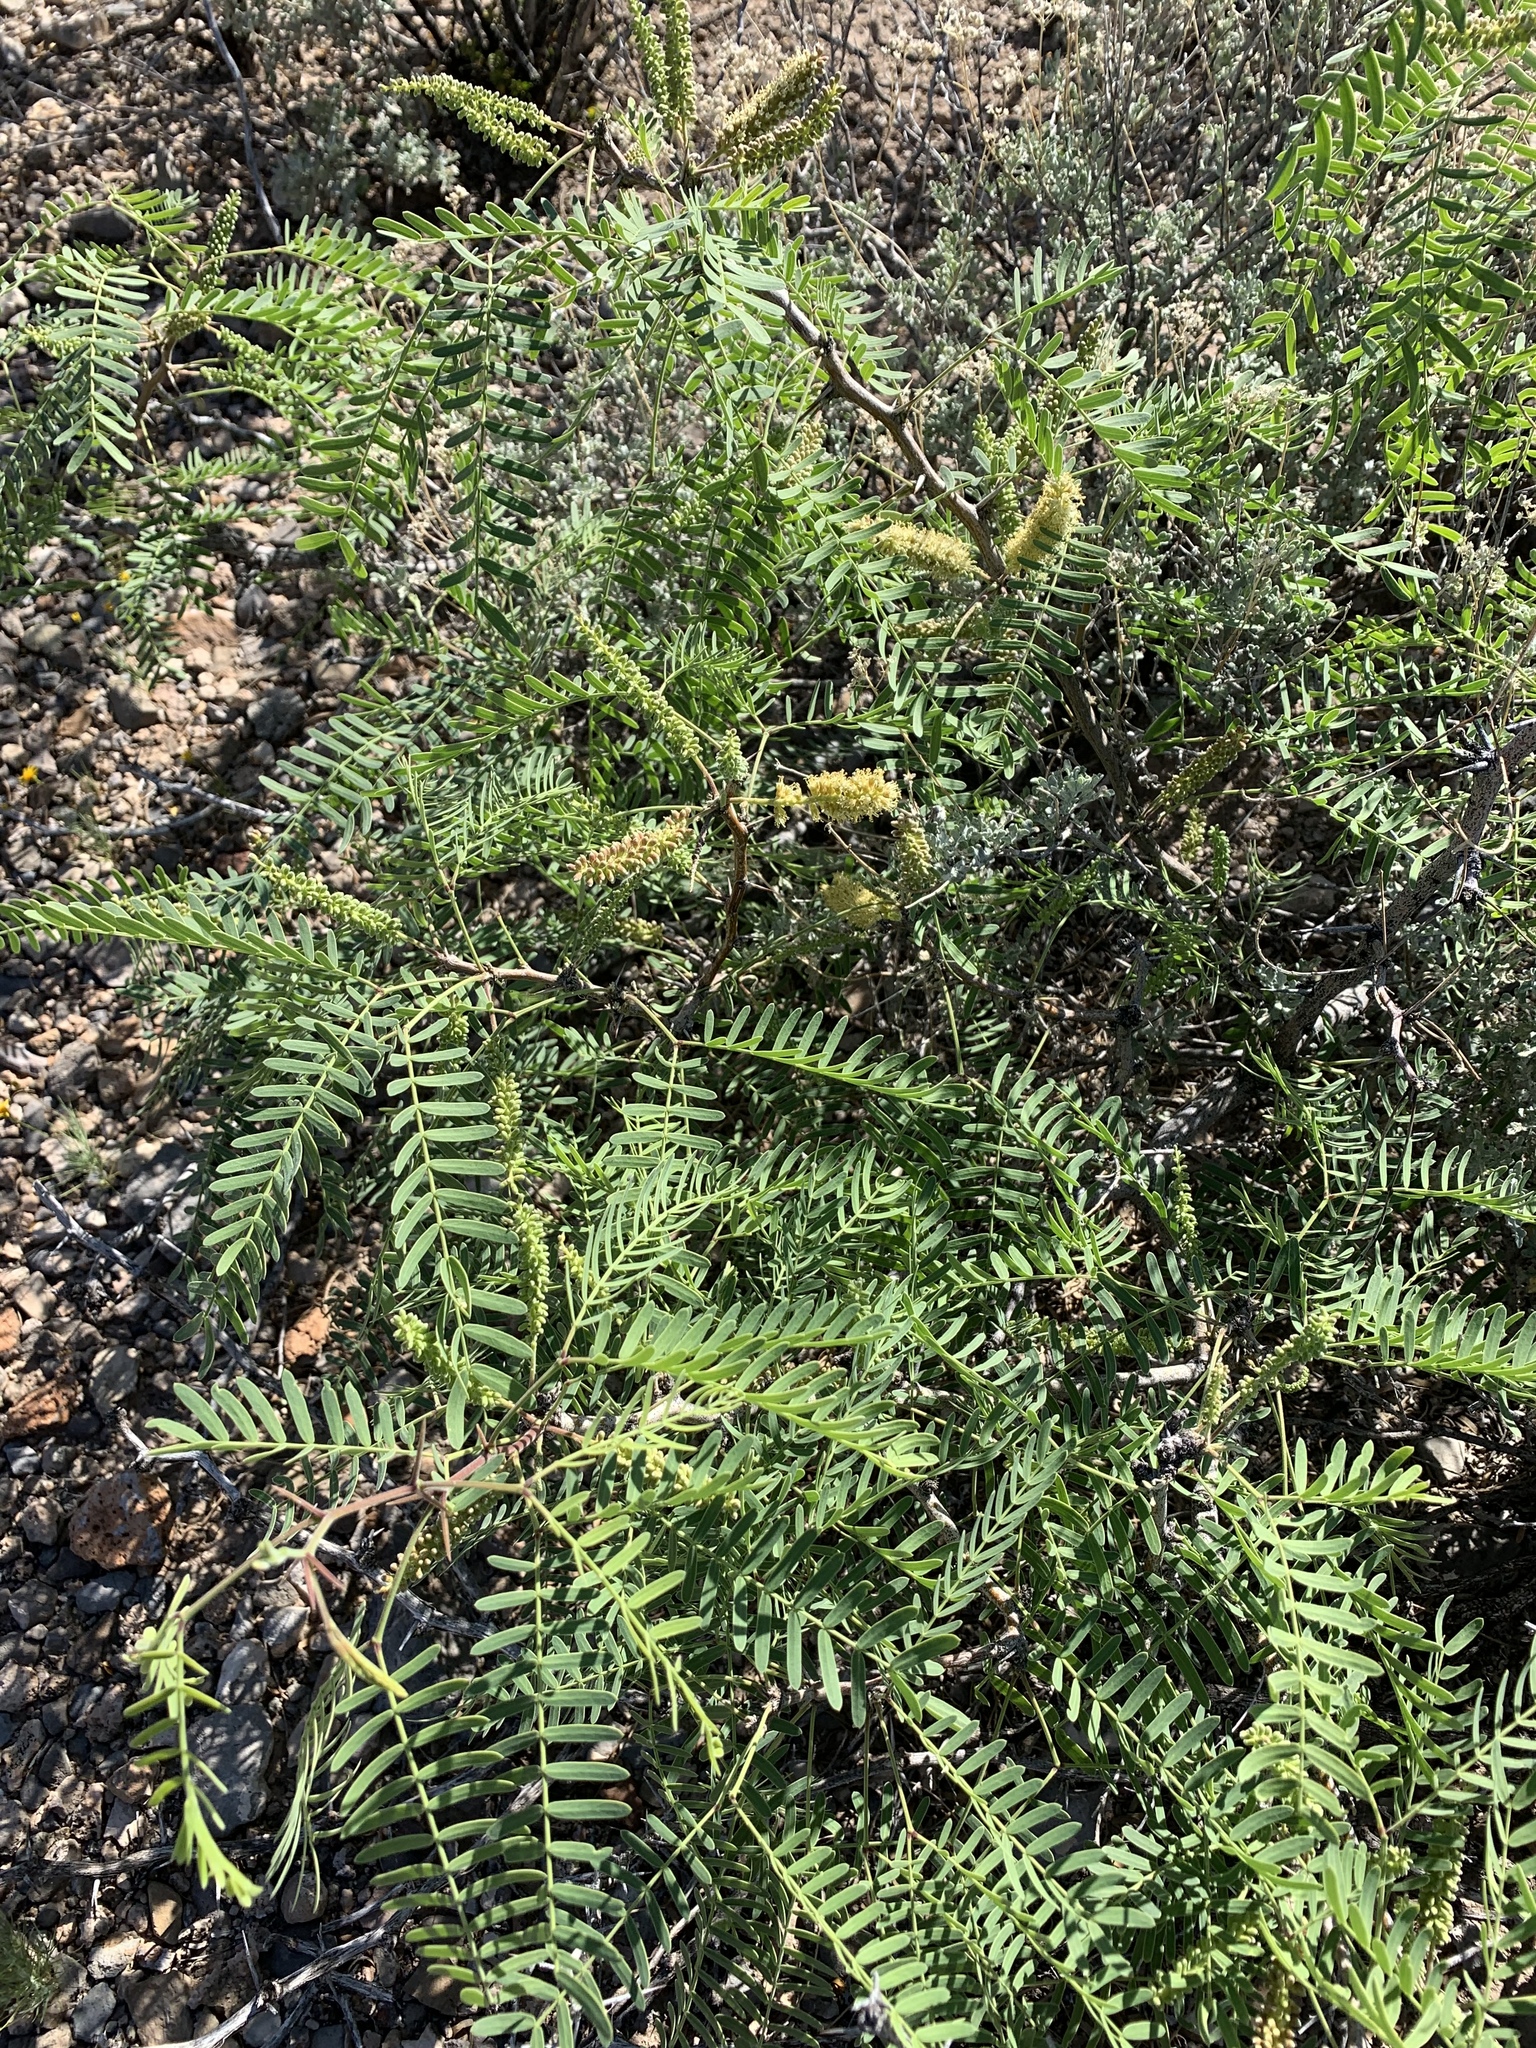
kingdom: Plantae
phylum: Tracheophyta
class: Magnoliopsida
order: Fabales
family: Fabaceae
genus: Prosopis
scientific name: Prosopis glandulosa
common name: Honey mesquite
